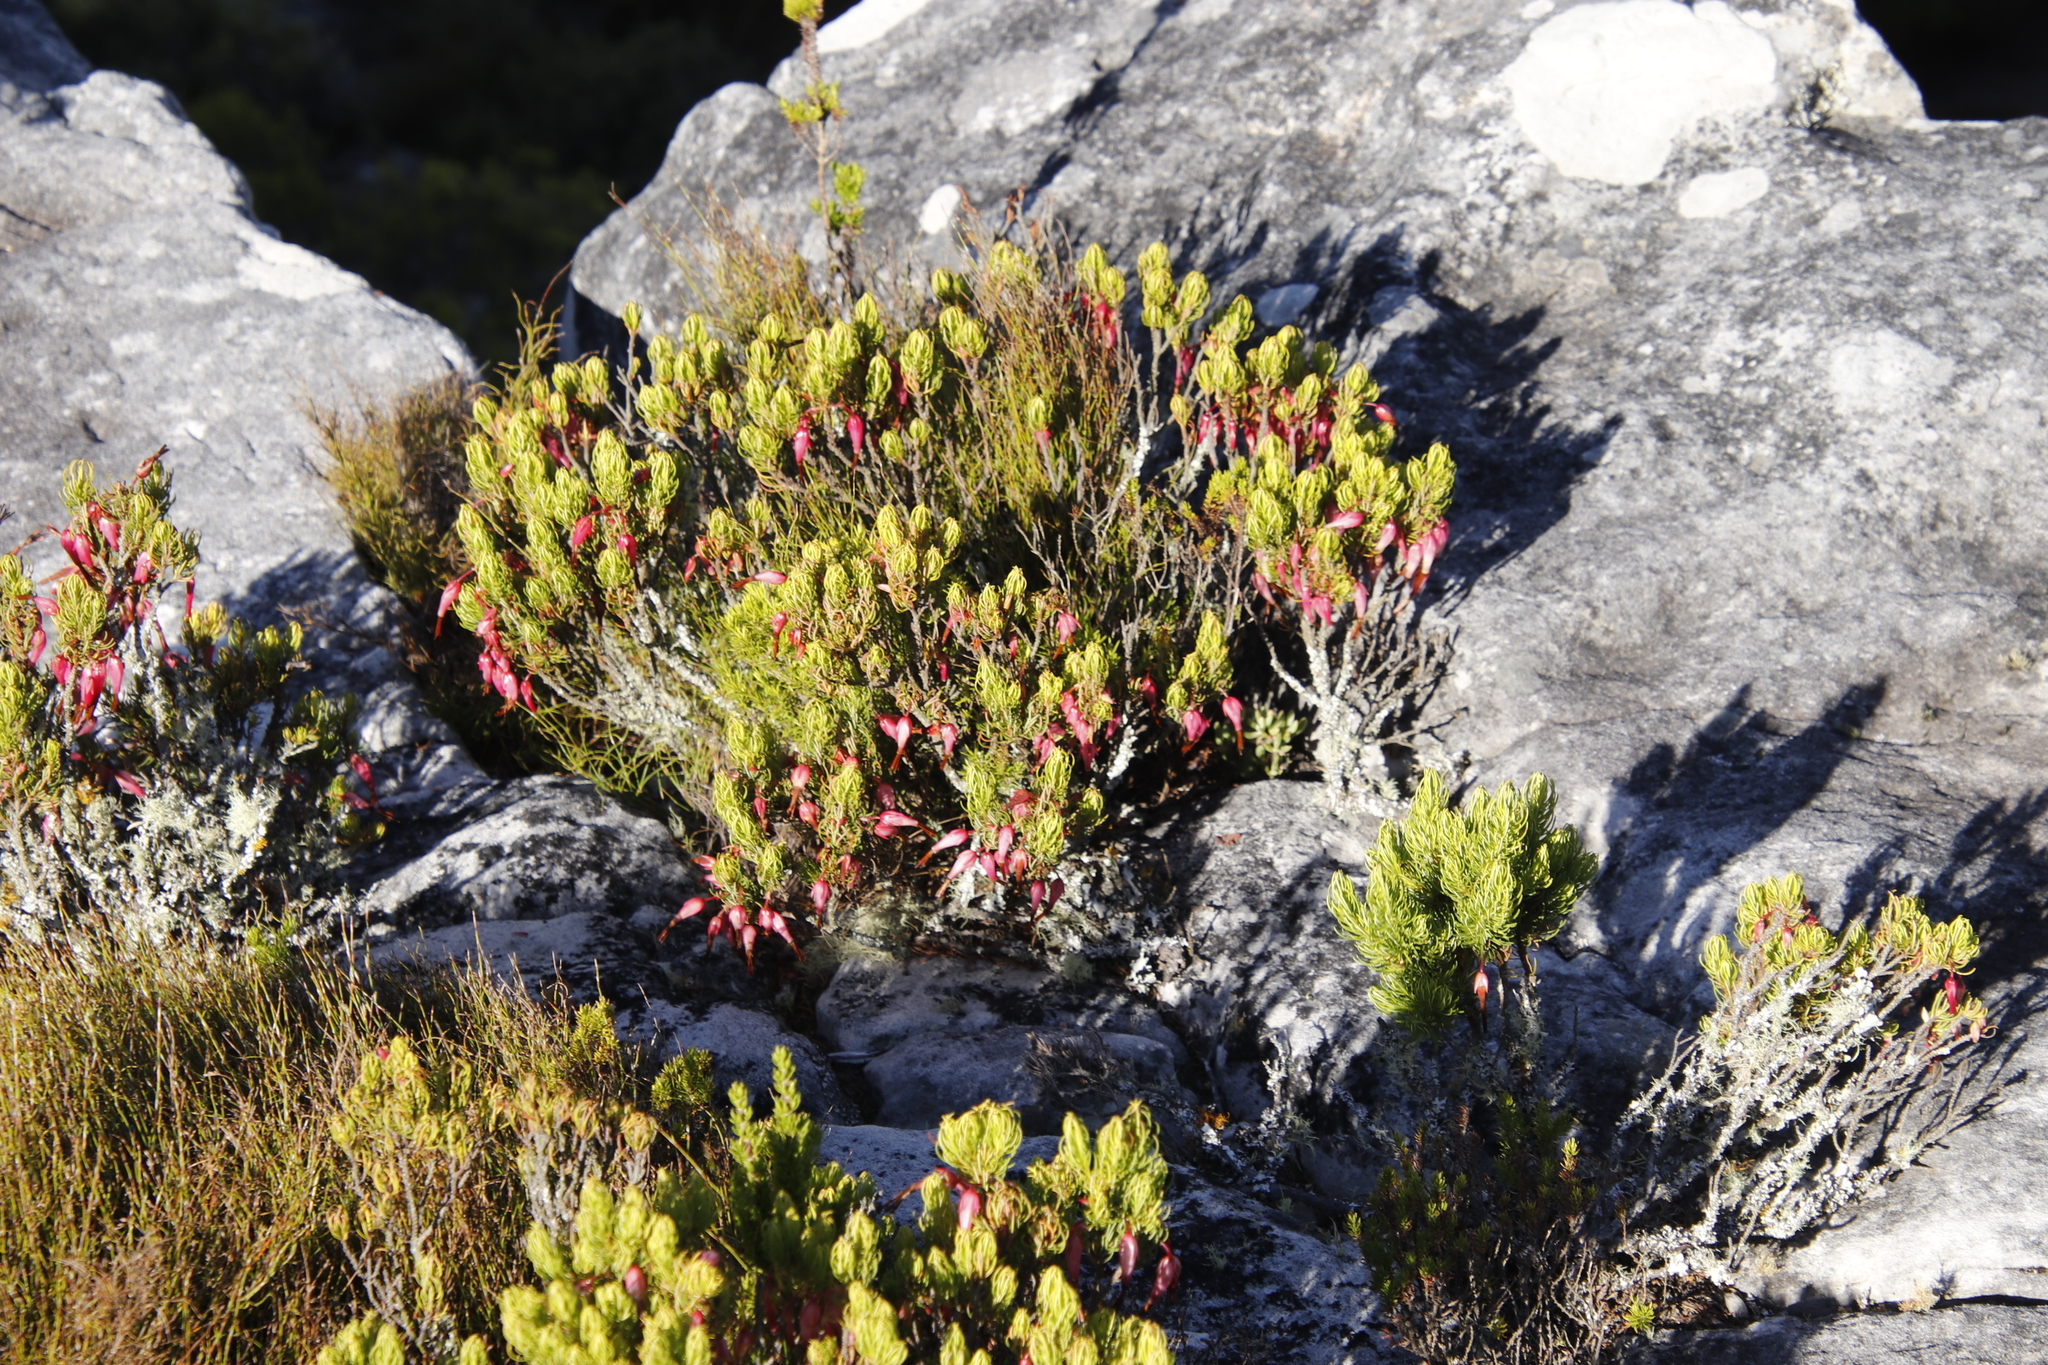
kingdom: Plantae
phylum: Tracheophyta
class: Magnoliopsida
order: Ericales
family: Ericaceae
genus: Erica
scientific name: Erica plukenetii
